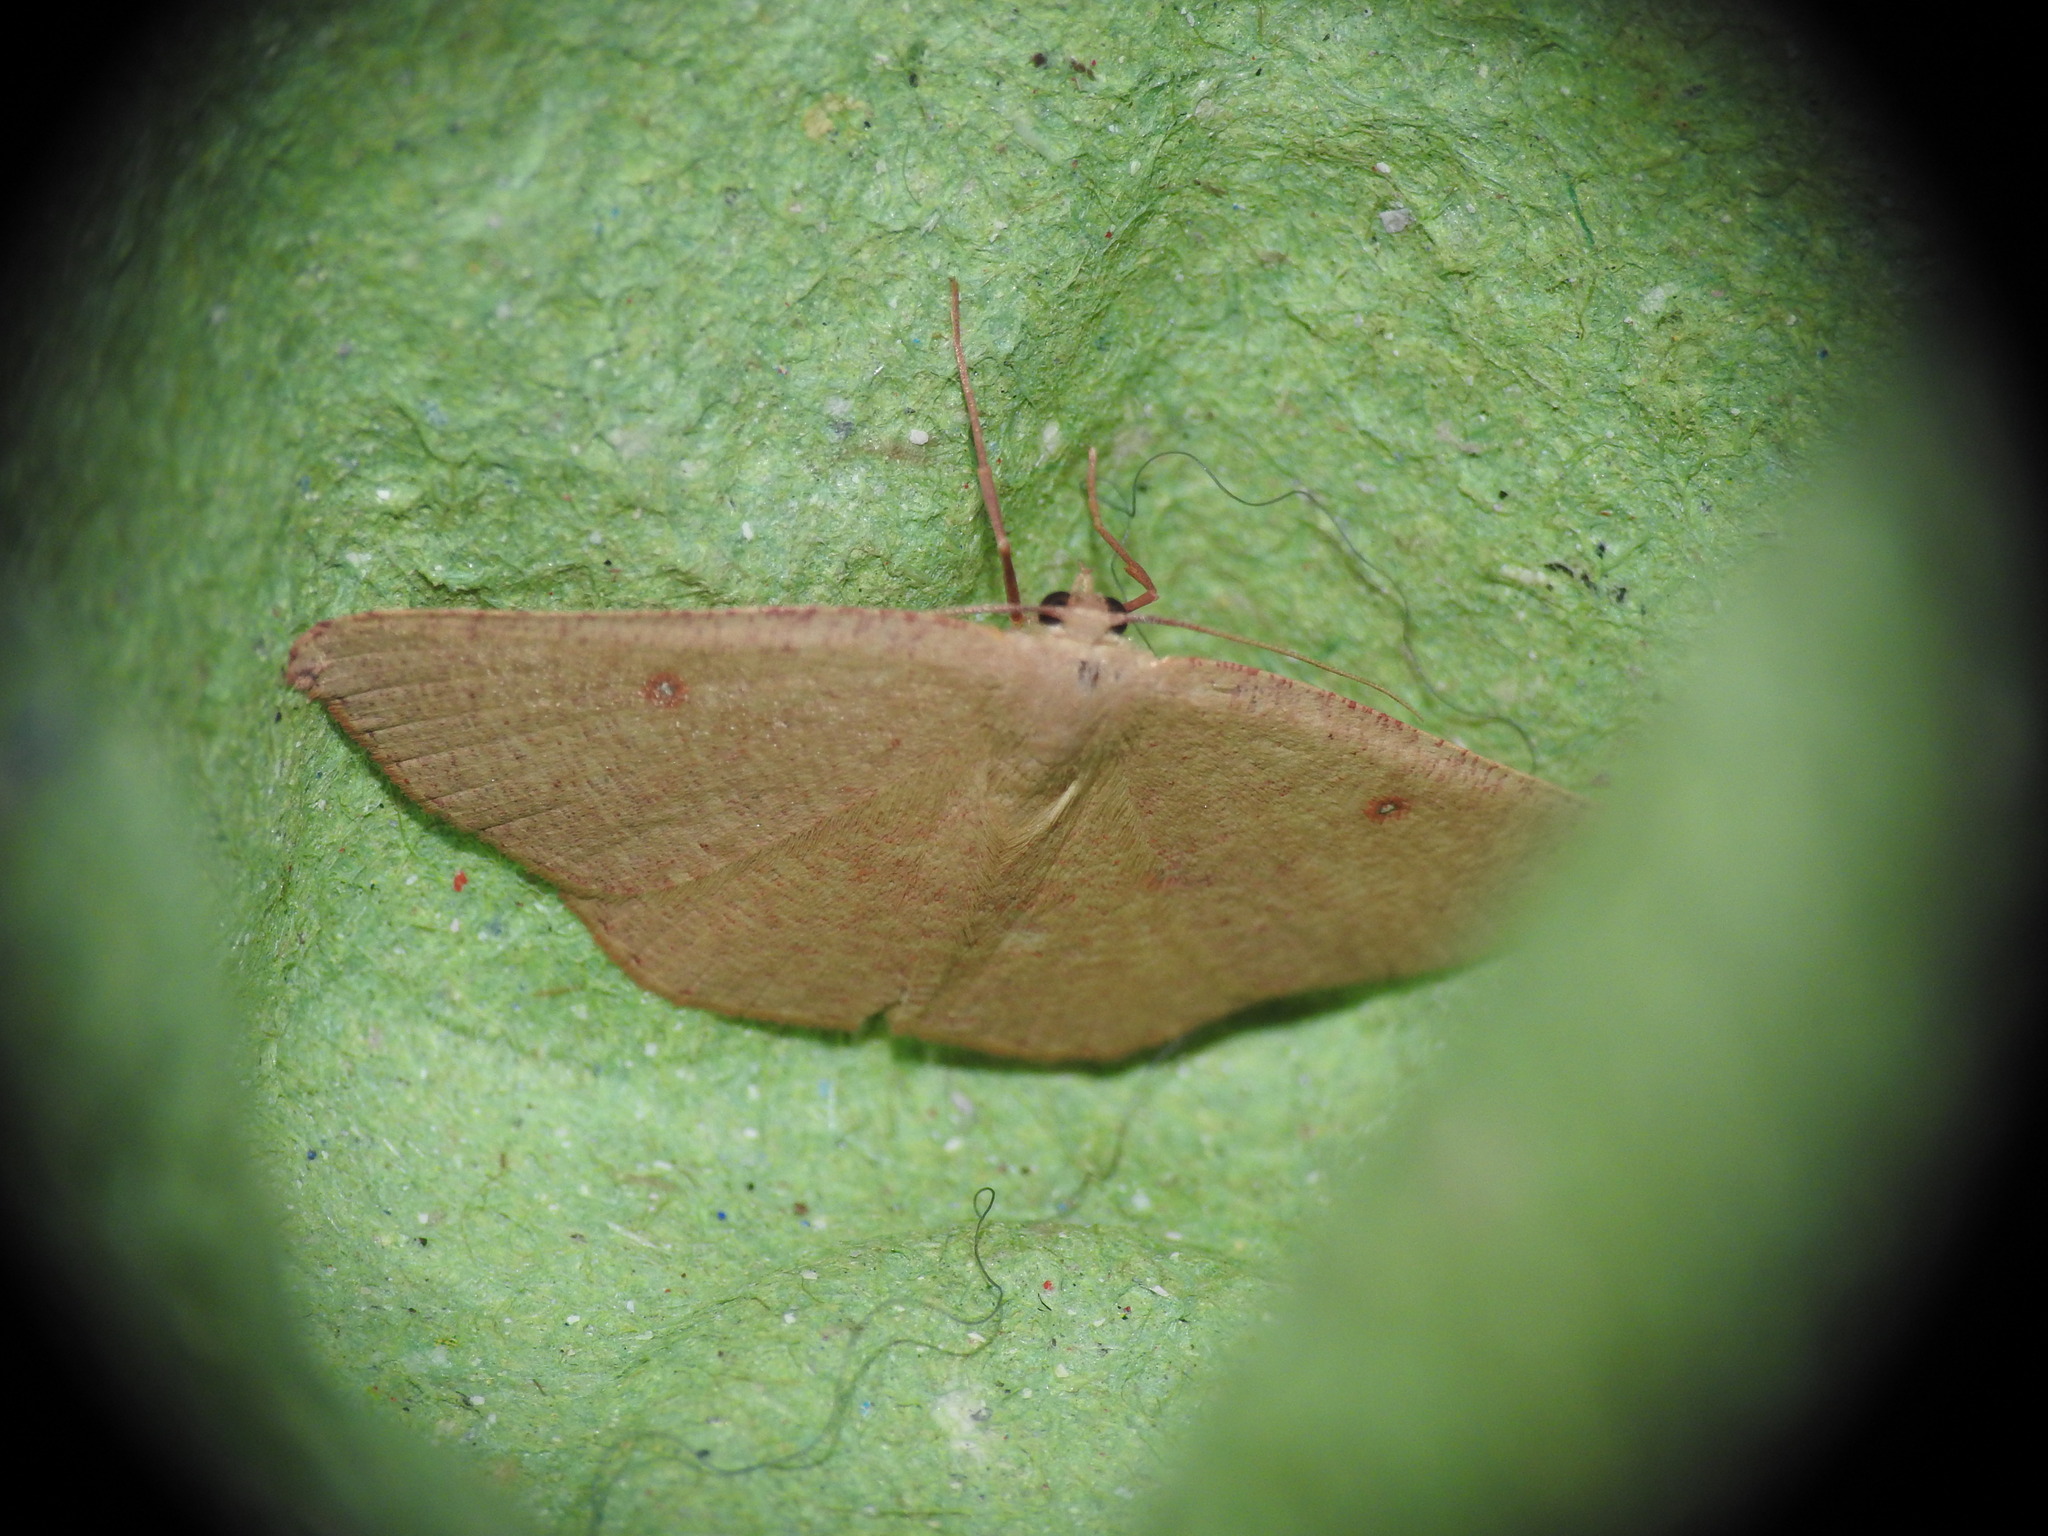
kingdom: Animalia
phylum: Arthropoda
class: Insecta
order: Lepidoptera
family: Geometridae
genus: Cyclophora
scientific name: Cyclophora puppillaria
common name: Blair's mocha
